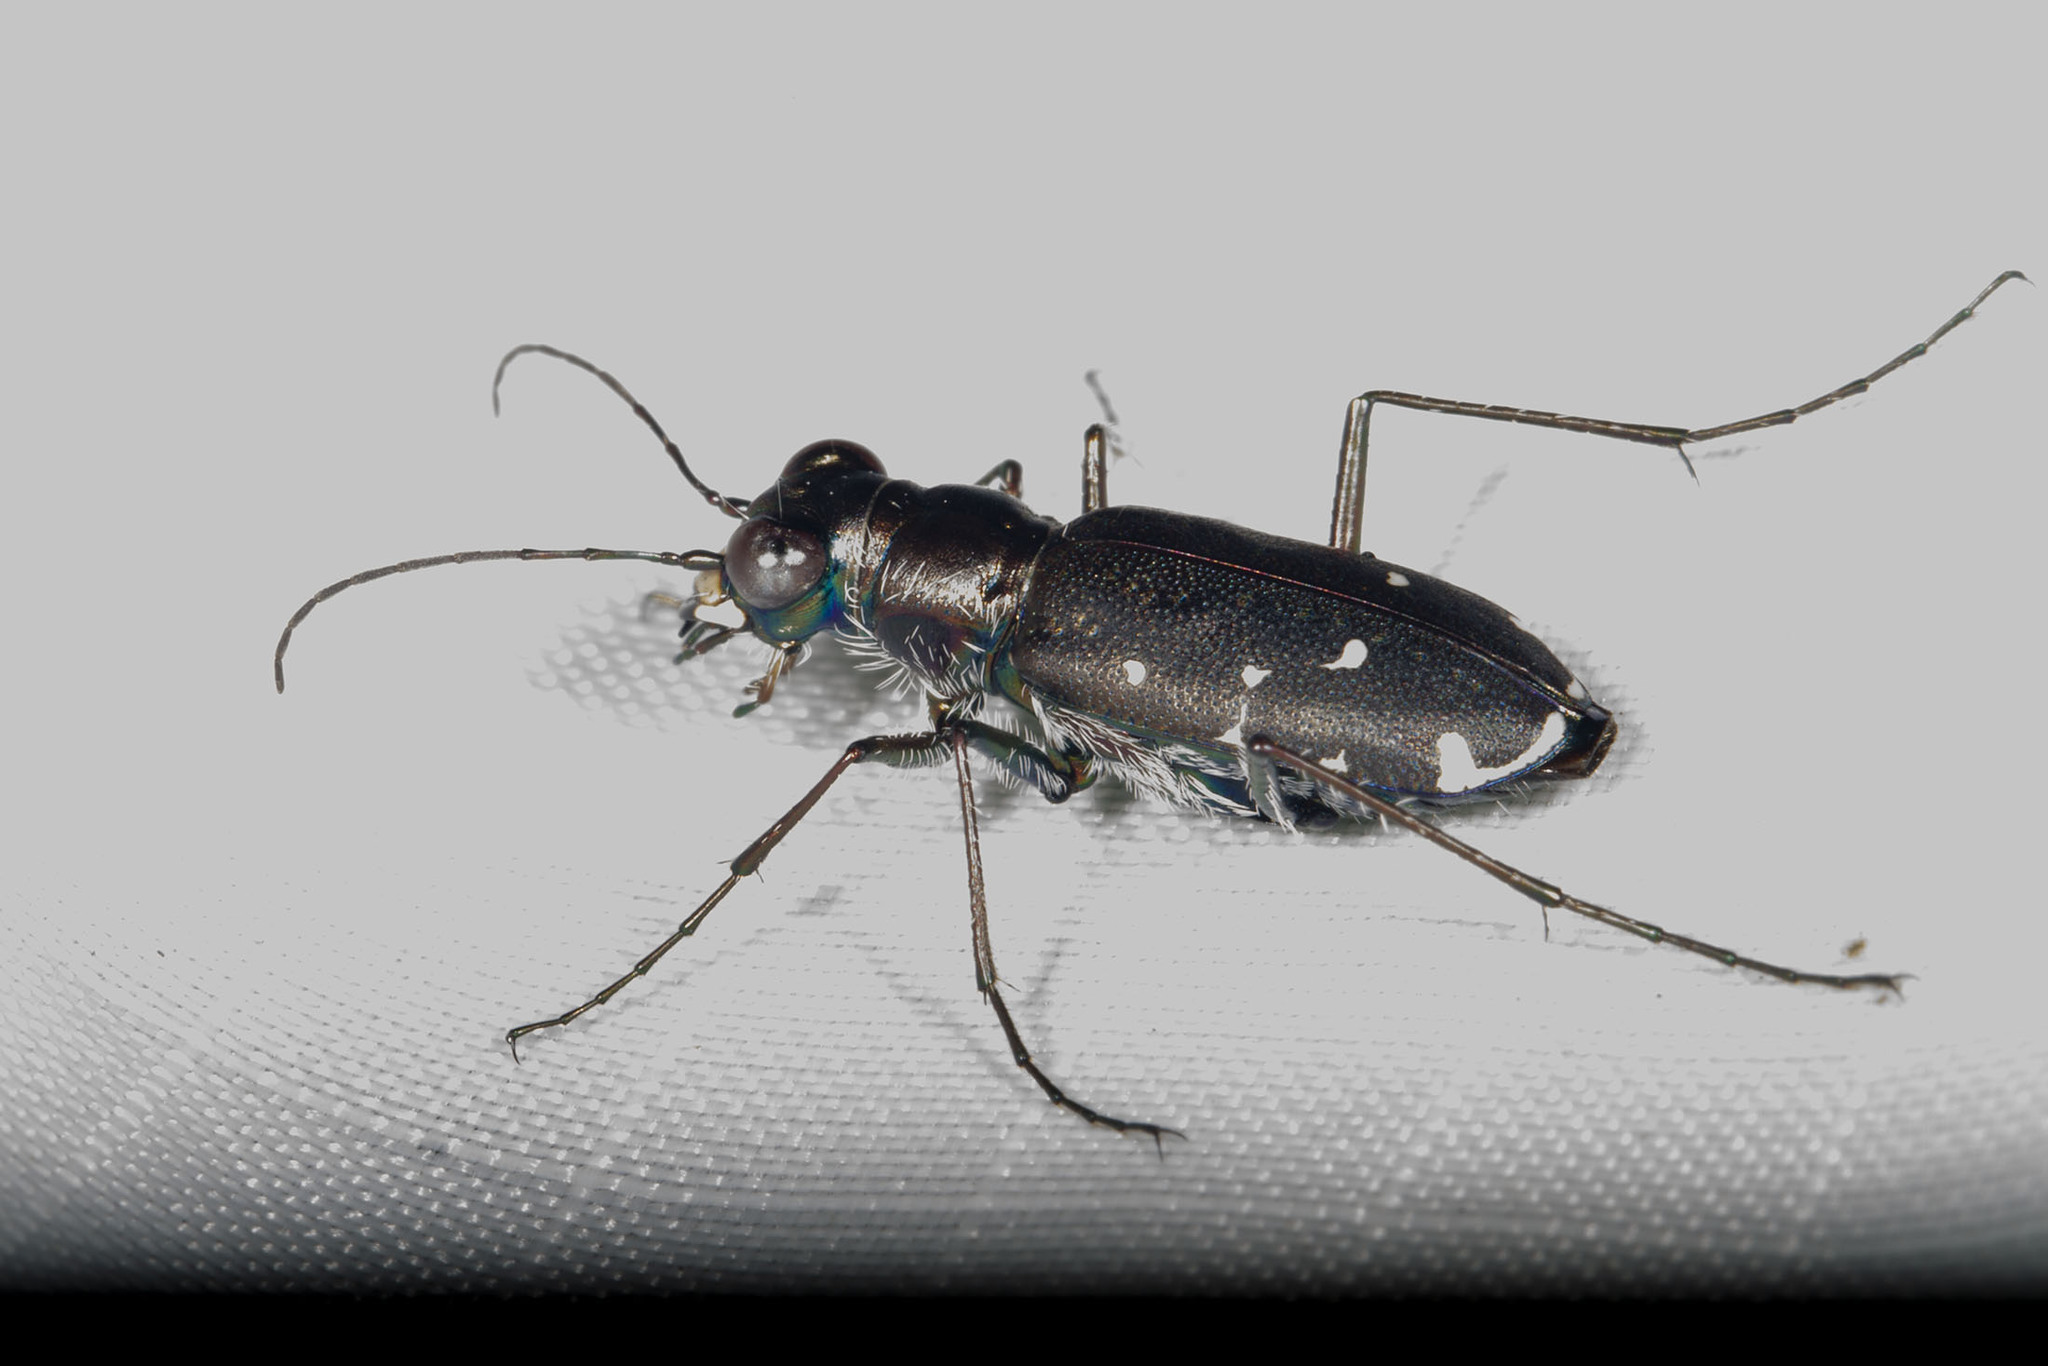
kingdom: Animalia
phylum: Arthropoda
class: Insecta
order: Coleoptera
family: Carabidae
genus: Cicindela
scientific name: Cicindela punctulata
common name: Punctured tiger beetle
